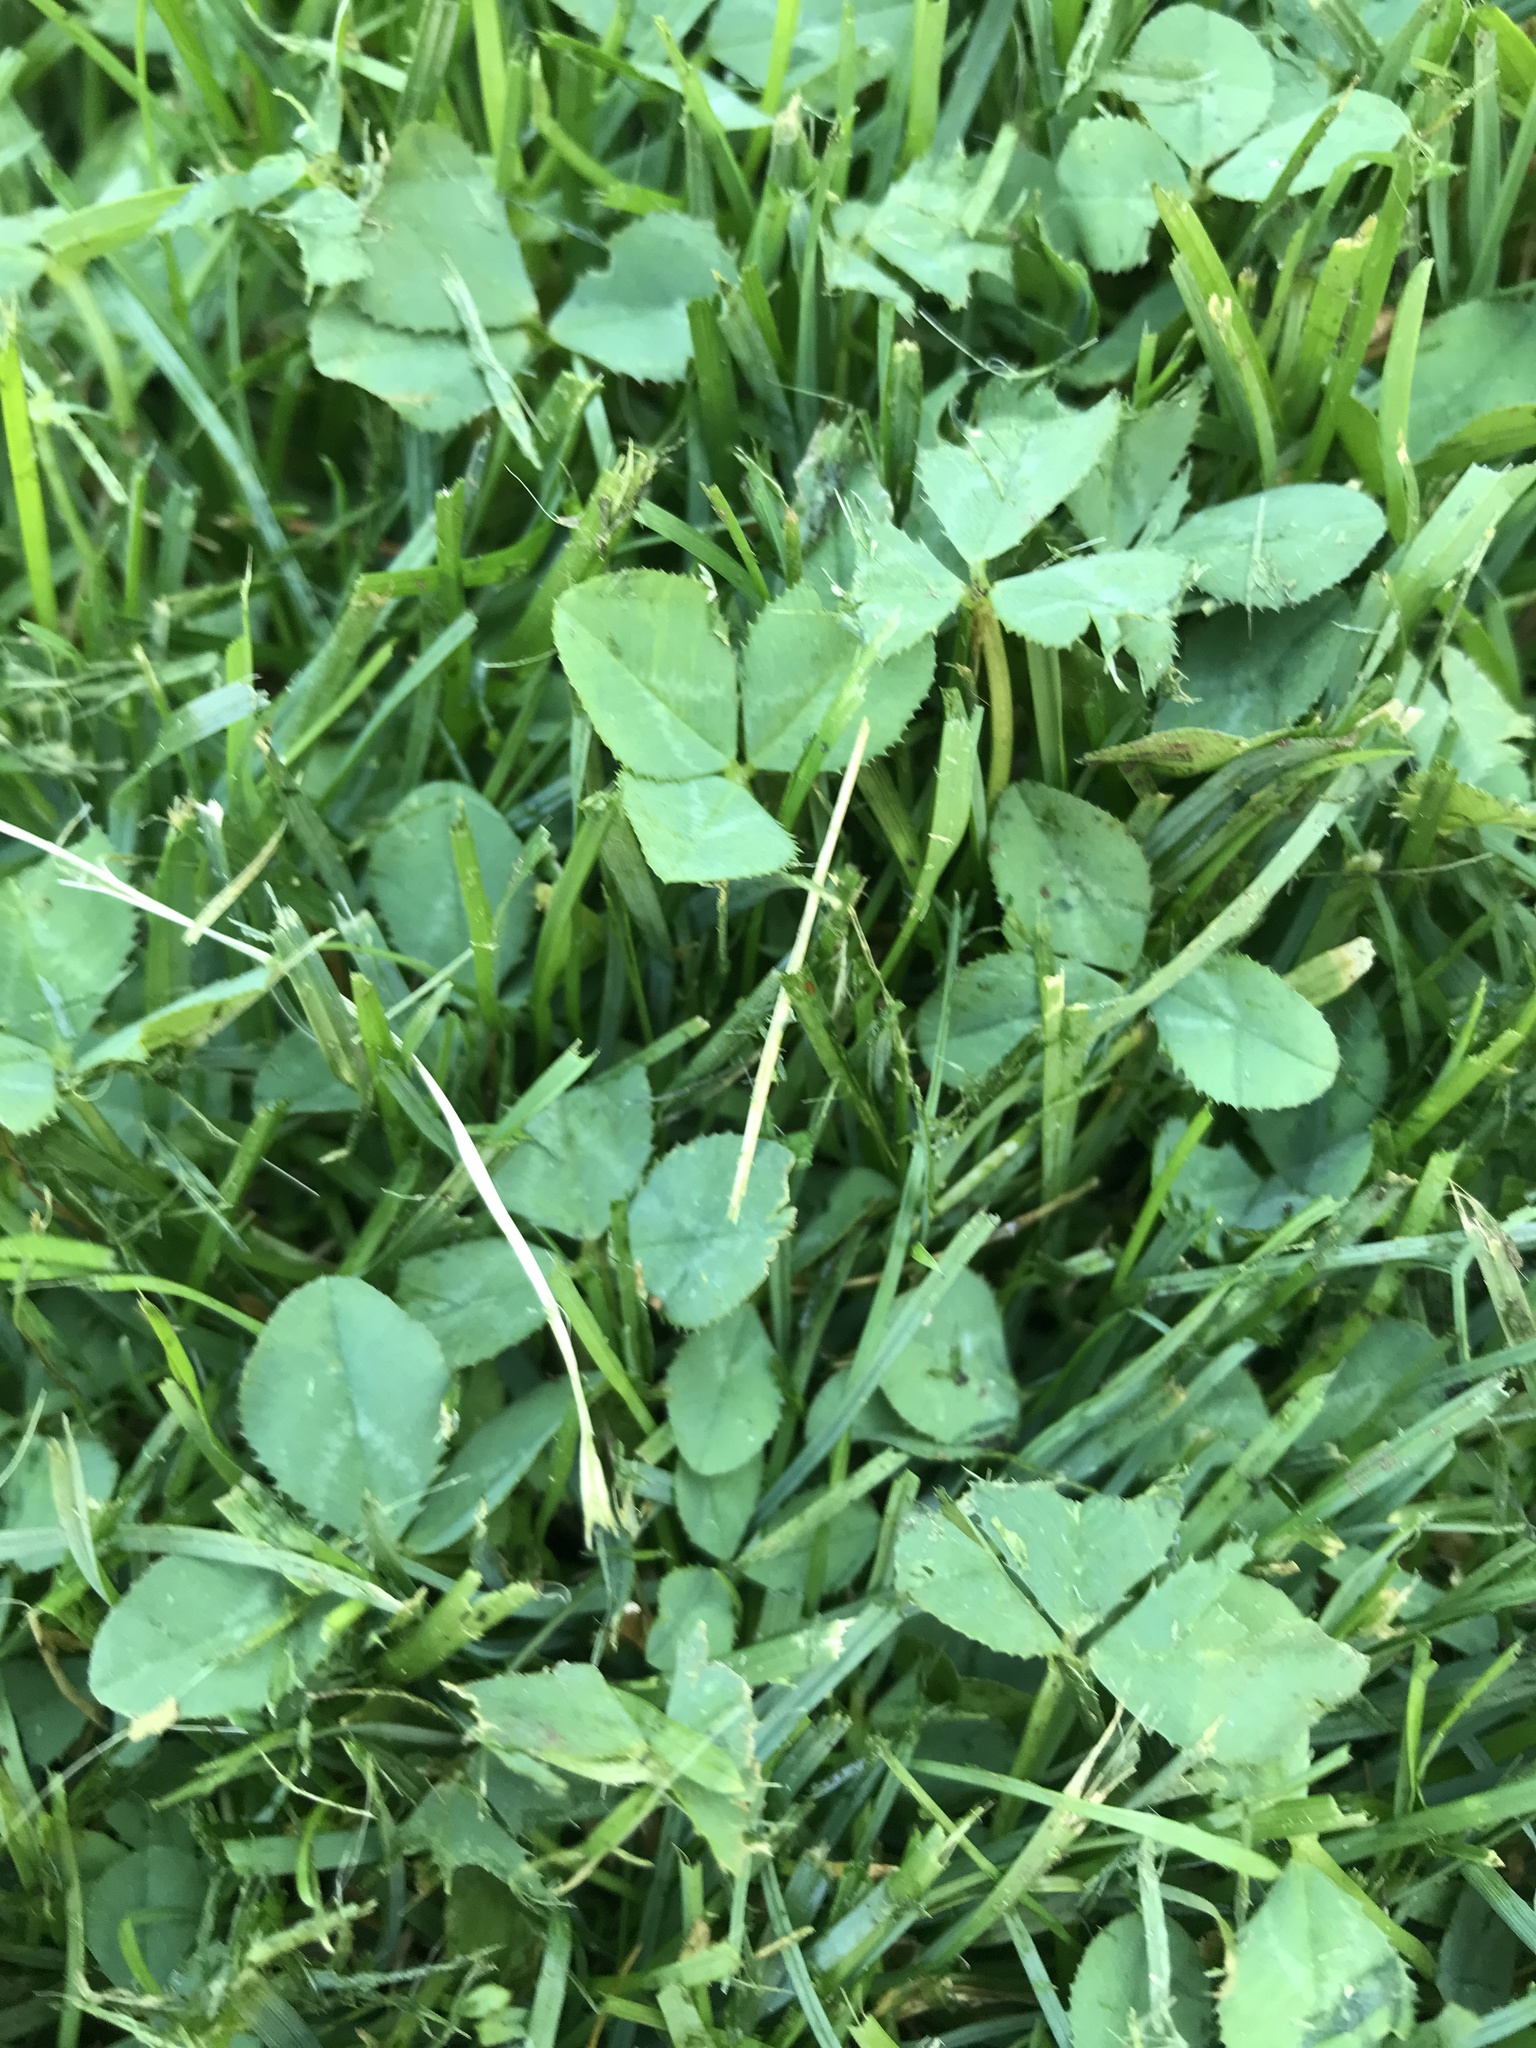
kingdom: Plantae
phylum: Tracheophyta
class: Magnoliopsida
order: Fabales
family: Fabaceae
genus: Trifolium
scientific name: Trifolium repens
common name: White clover
